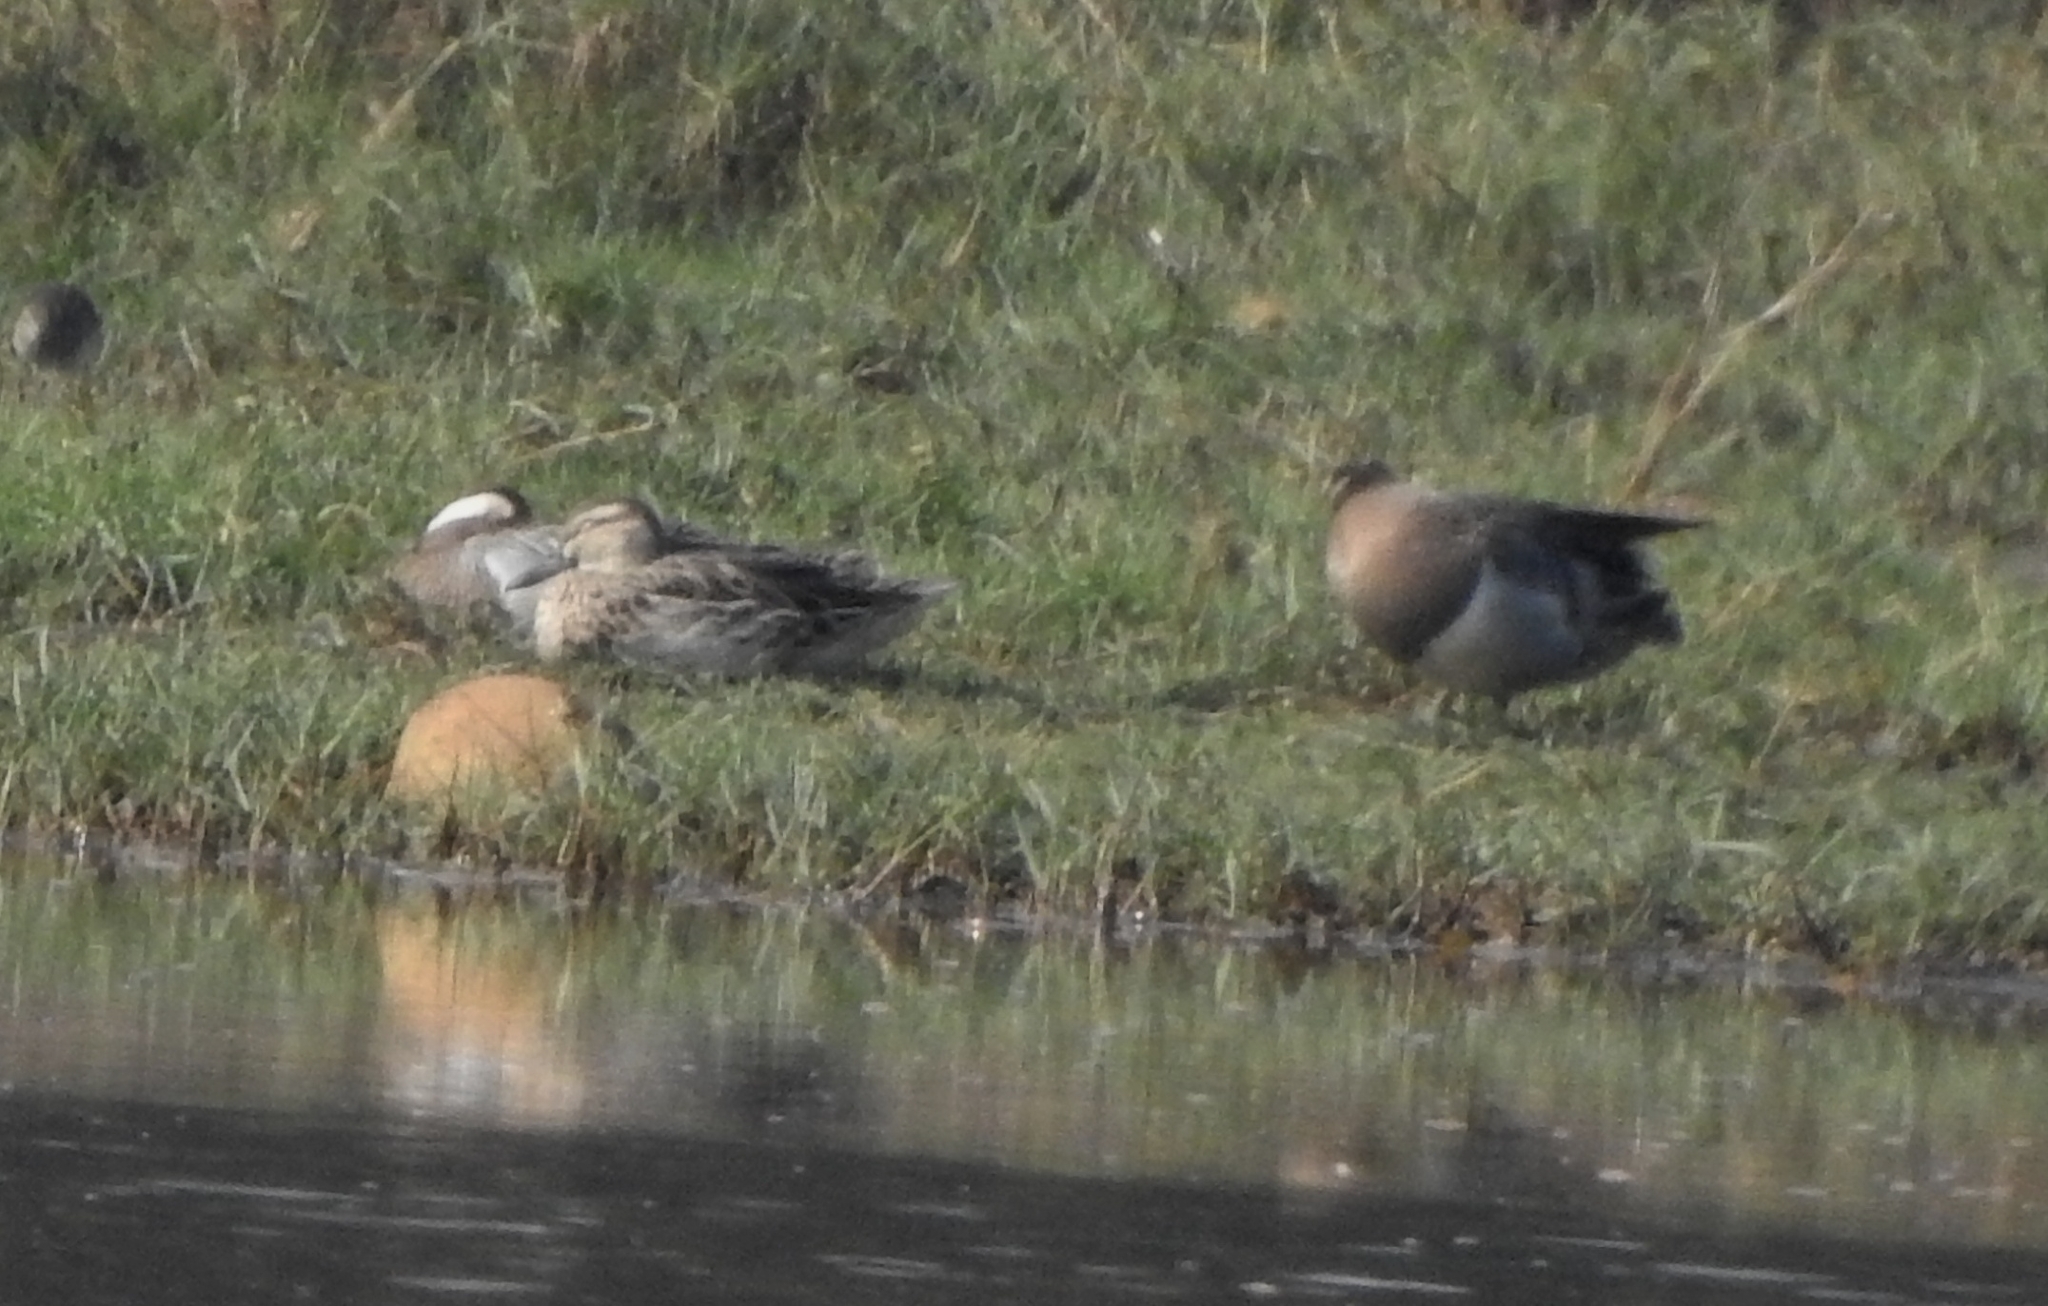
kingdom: Animalia
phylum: Chordata
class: Aves
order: Anseriformes
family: Anatidae
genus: Spatula
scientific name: Spatula querquedula
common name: Garganey
